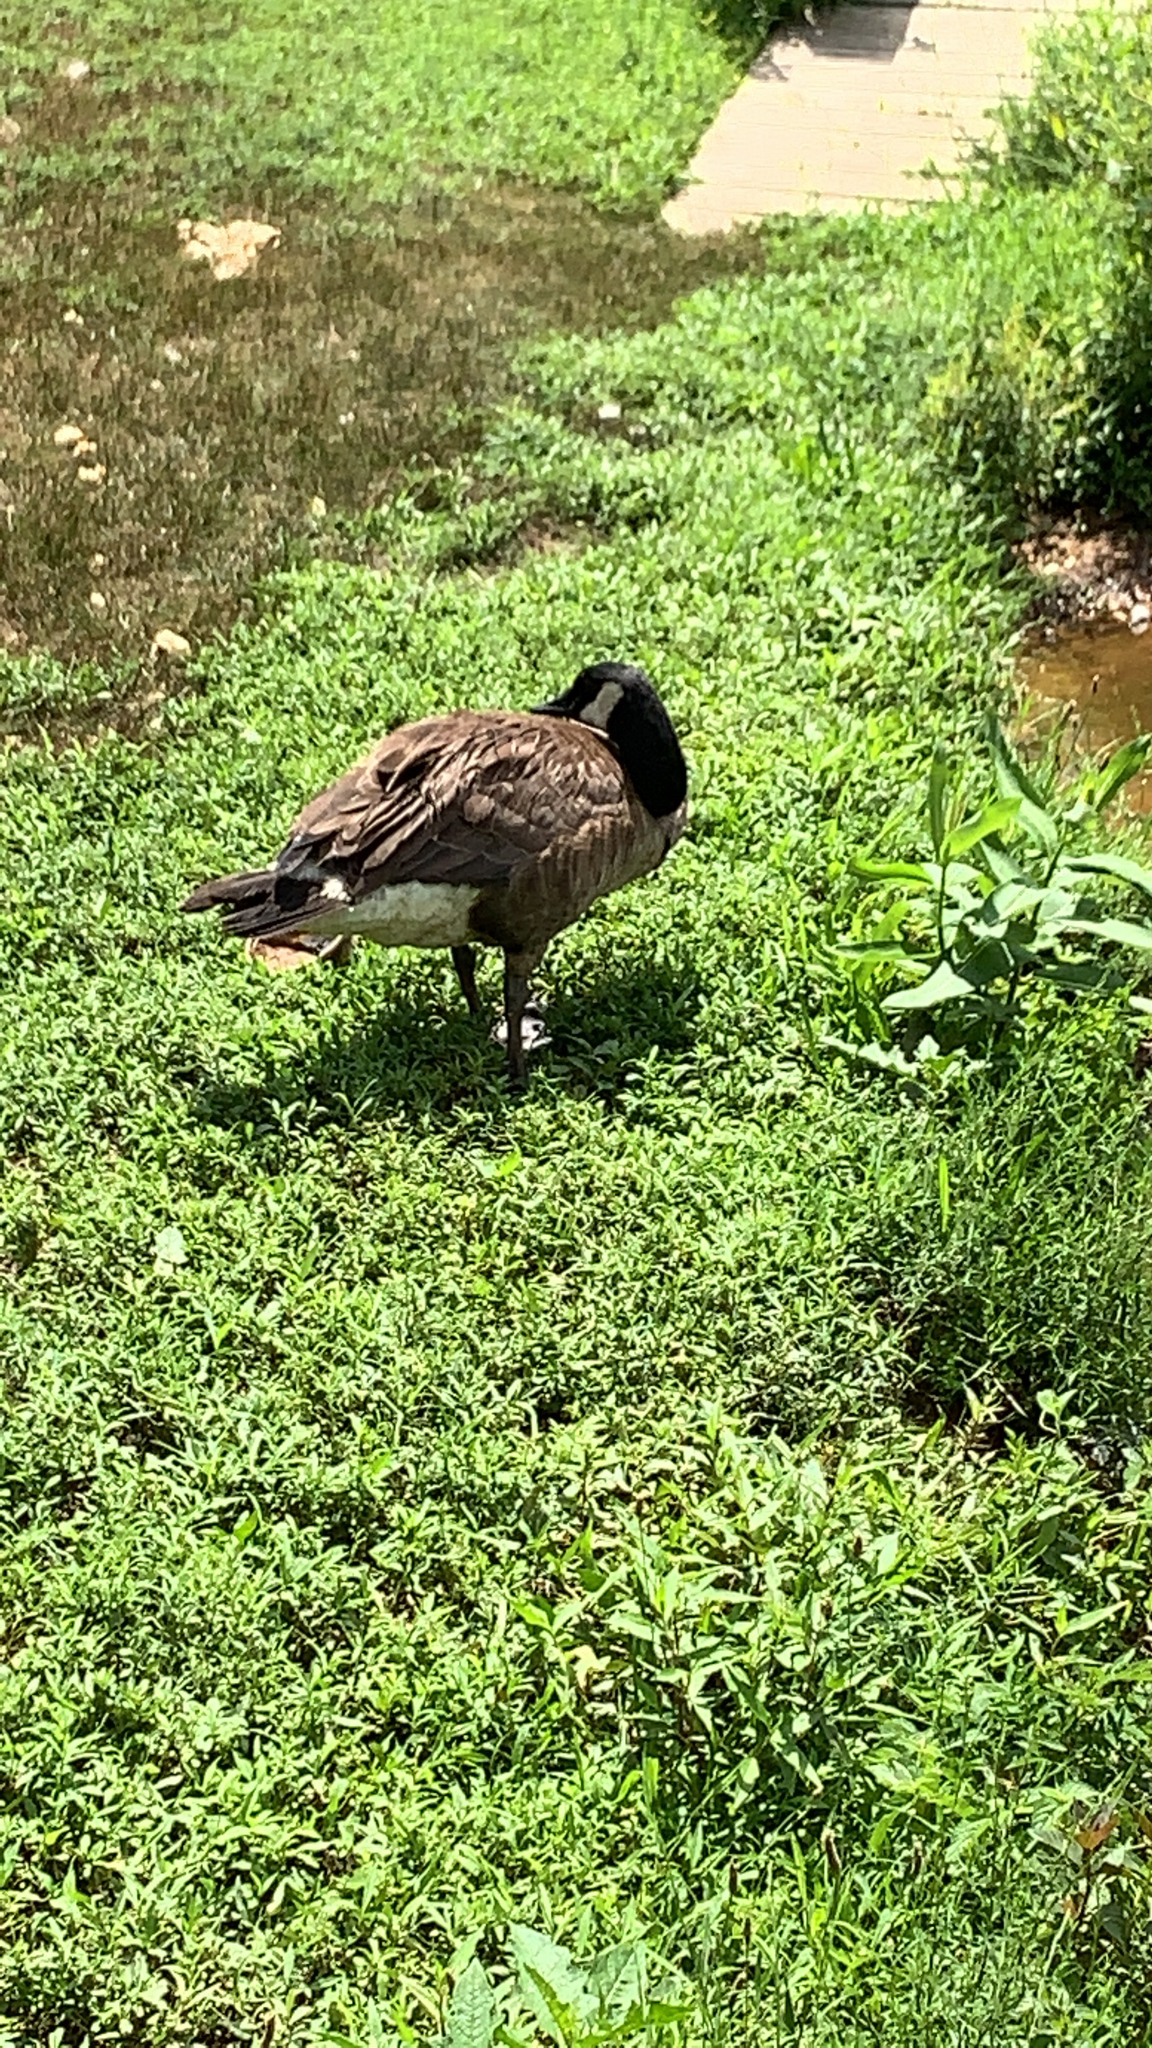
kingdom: Animalia
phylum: Chordata
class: Aves
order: Anseriformes
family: Anatidae
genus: Branta
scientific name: Branta canadensis
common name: Canada goose
